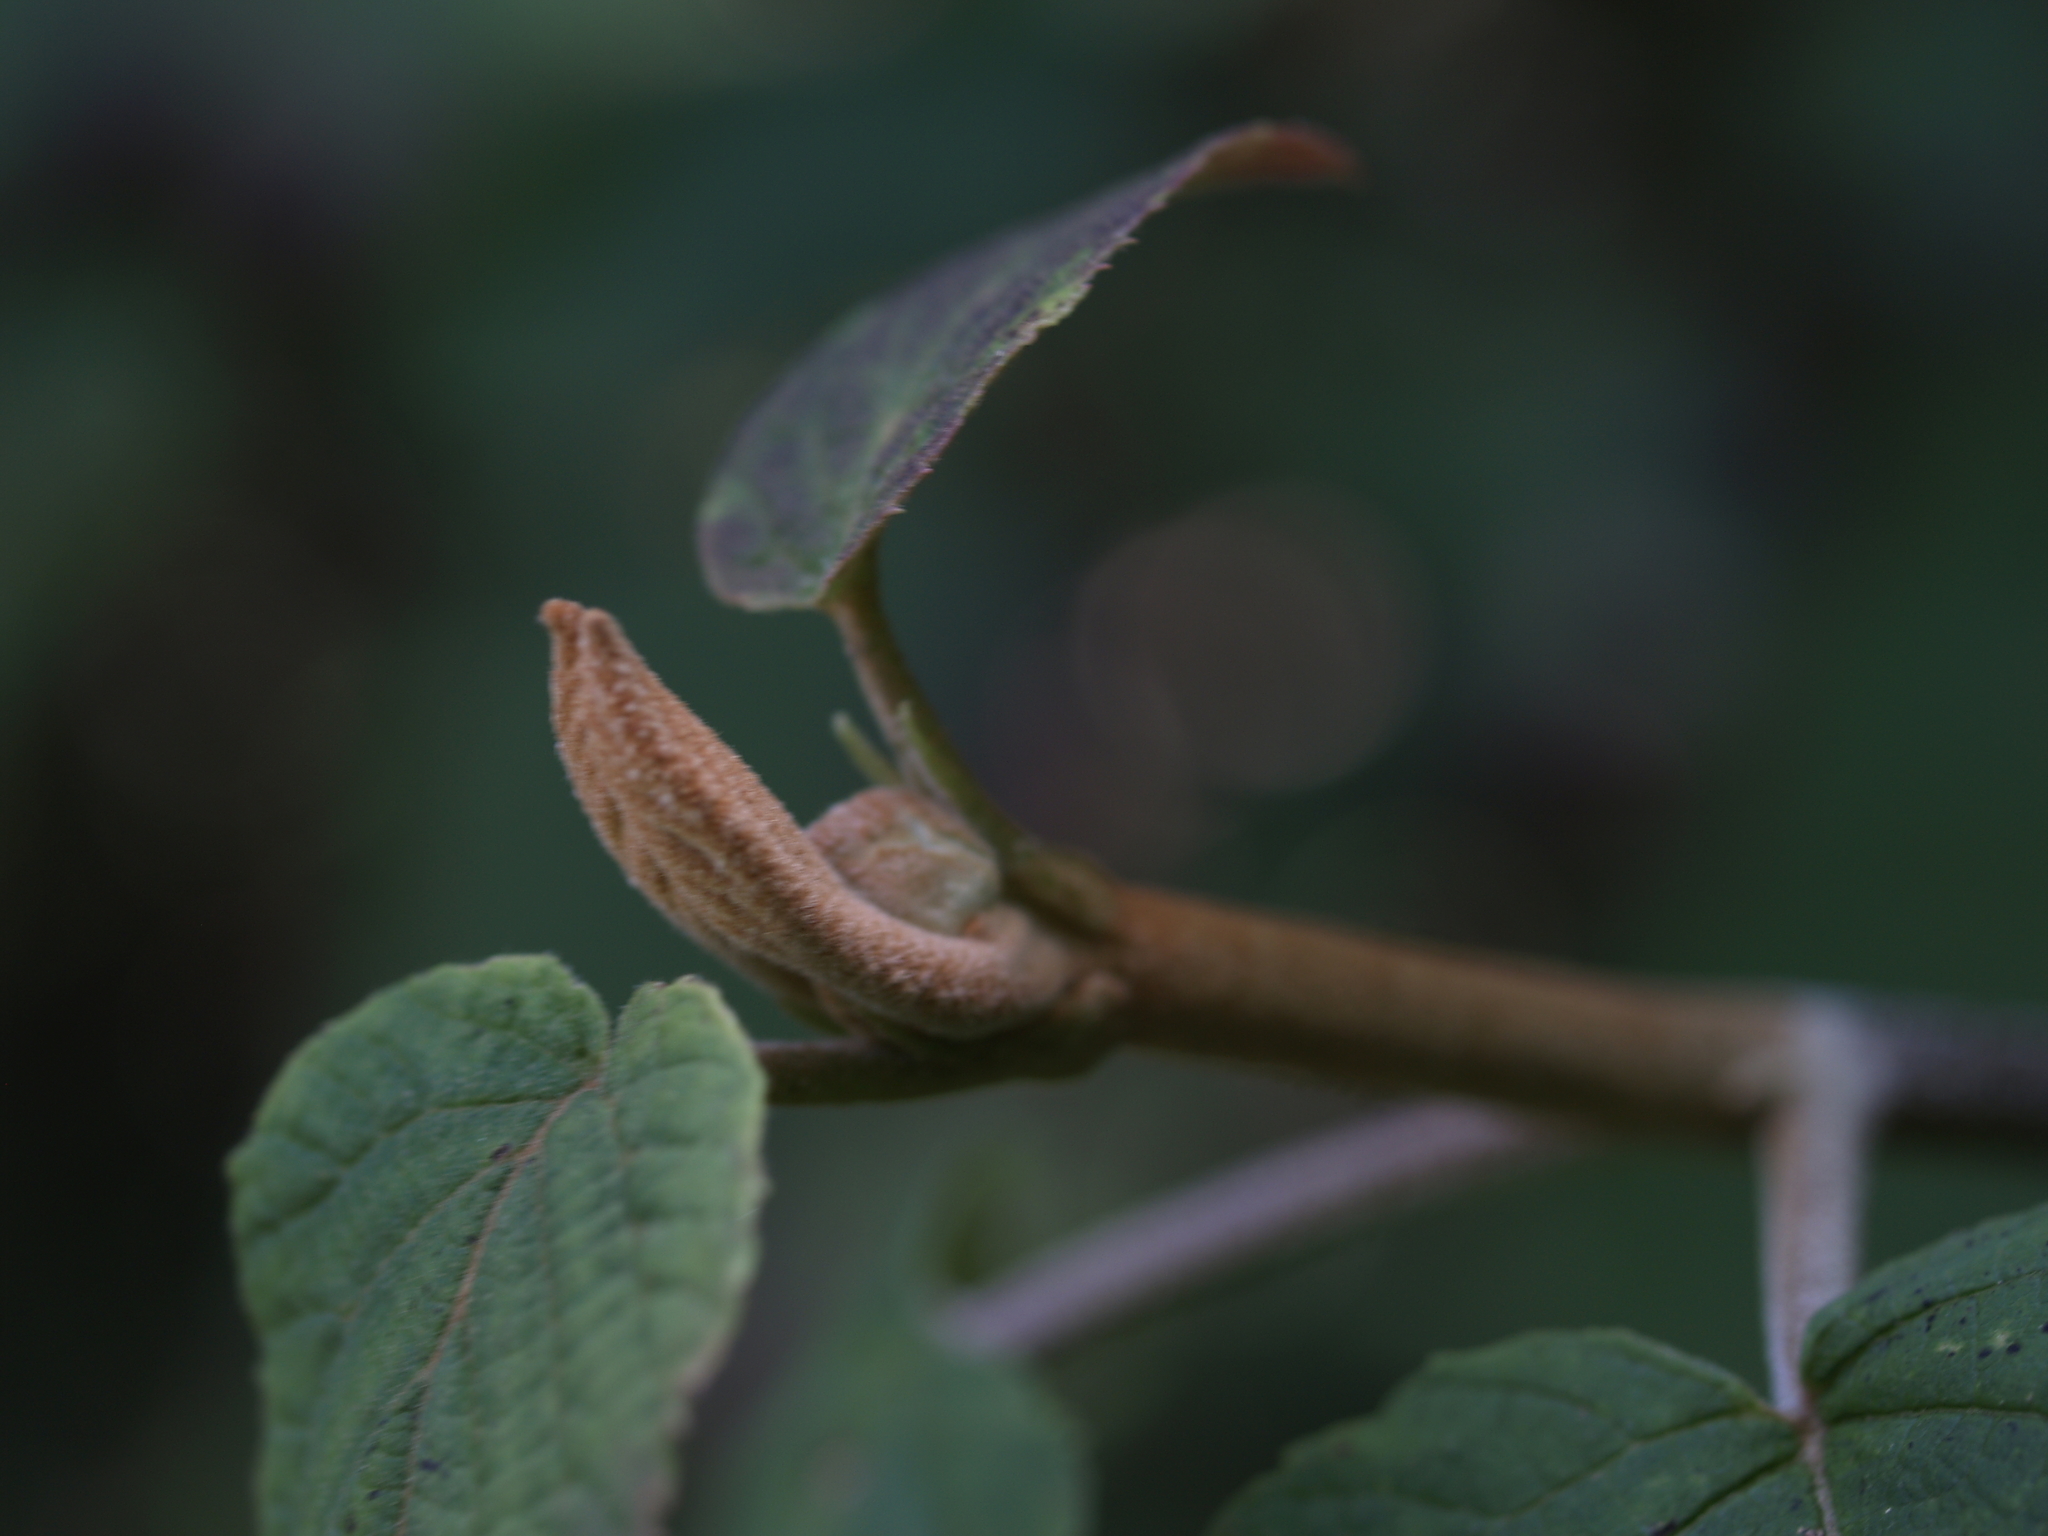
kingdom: Plantae
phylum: Tracheophyta
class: Magnoliopsida
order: Dipsacales
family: Viburnaceae
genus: Viburnum
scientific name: Viburnum lantanoides
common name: Hobblebush
